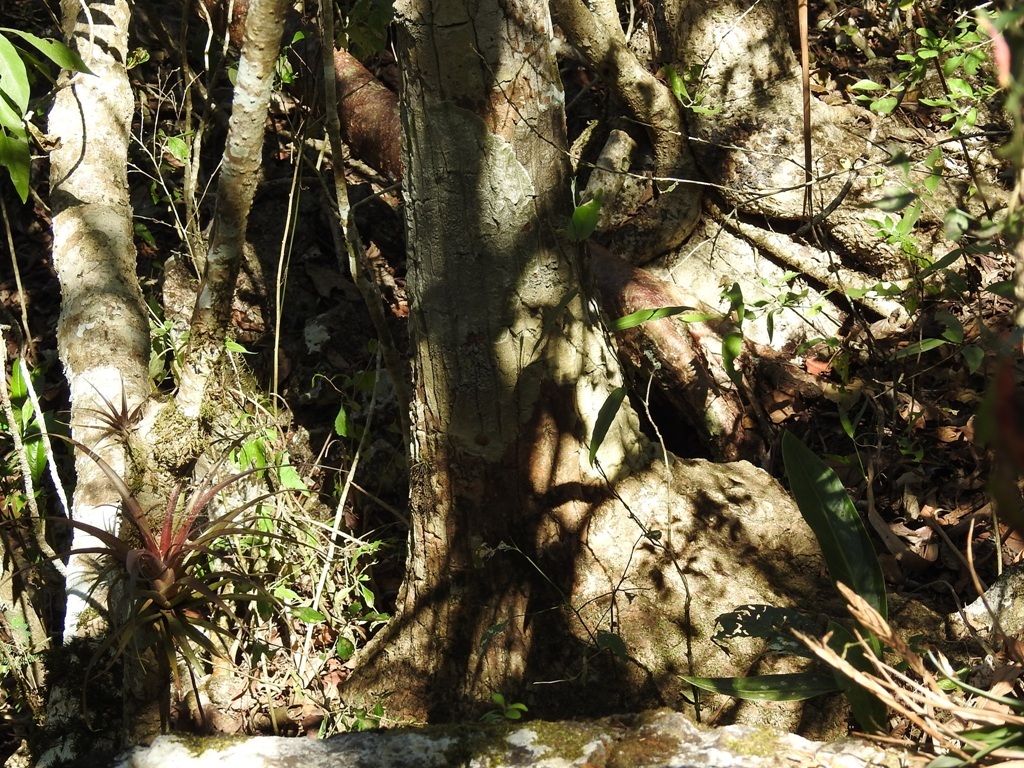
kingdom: Plantae
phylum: Tracheophyta
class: Liliopsida
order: Asparagales
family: Asparagaceae
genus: Beaucarnea
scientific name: Beaucarnea goldmanii
